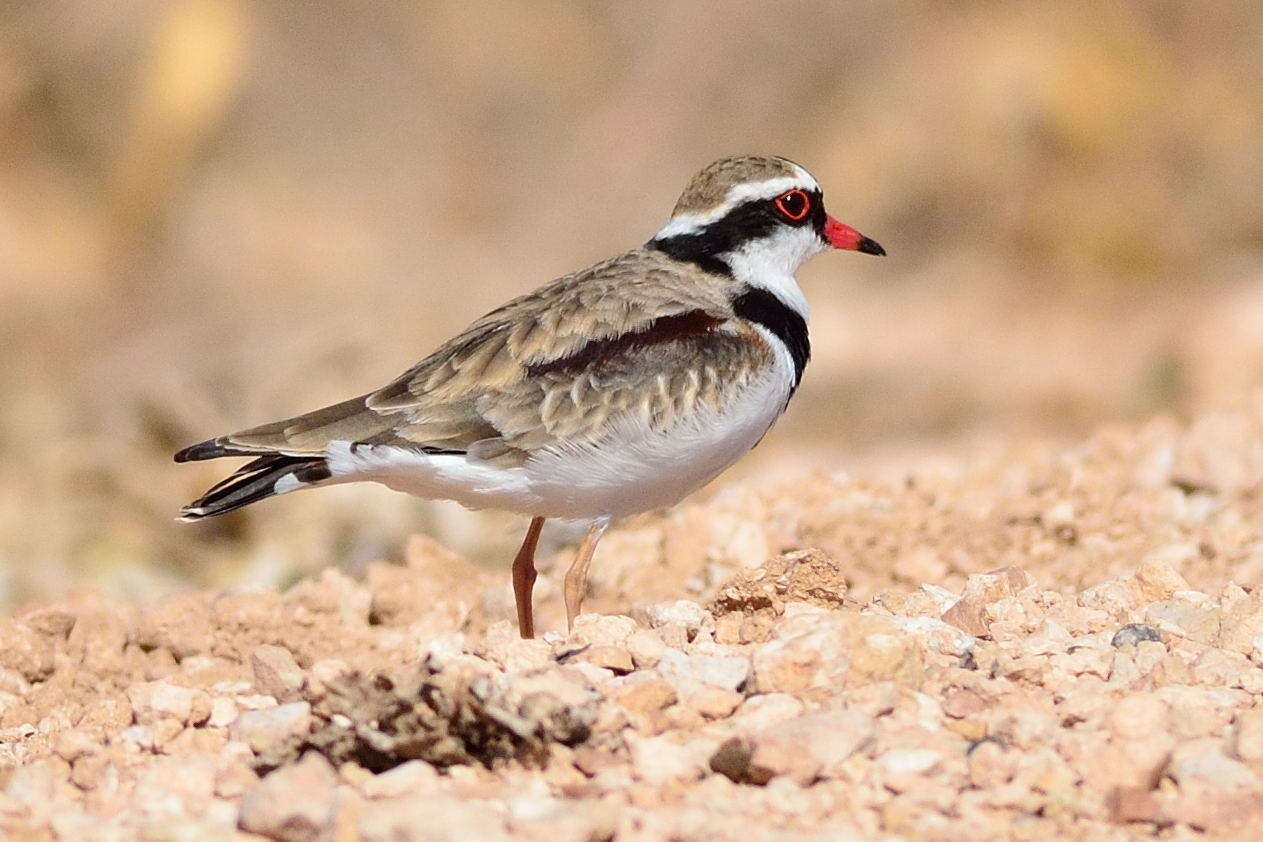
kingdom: Animalia
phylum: Chordata
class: Aves
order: Charadriiformes
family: Charadriidae
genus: Elseyornis
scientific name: Elseyornis melanops
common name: Black-fronted dotterel
